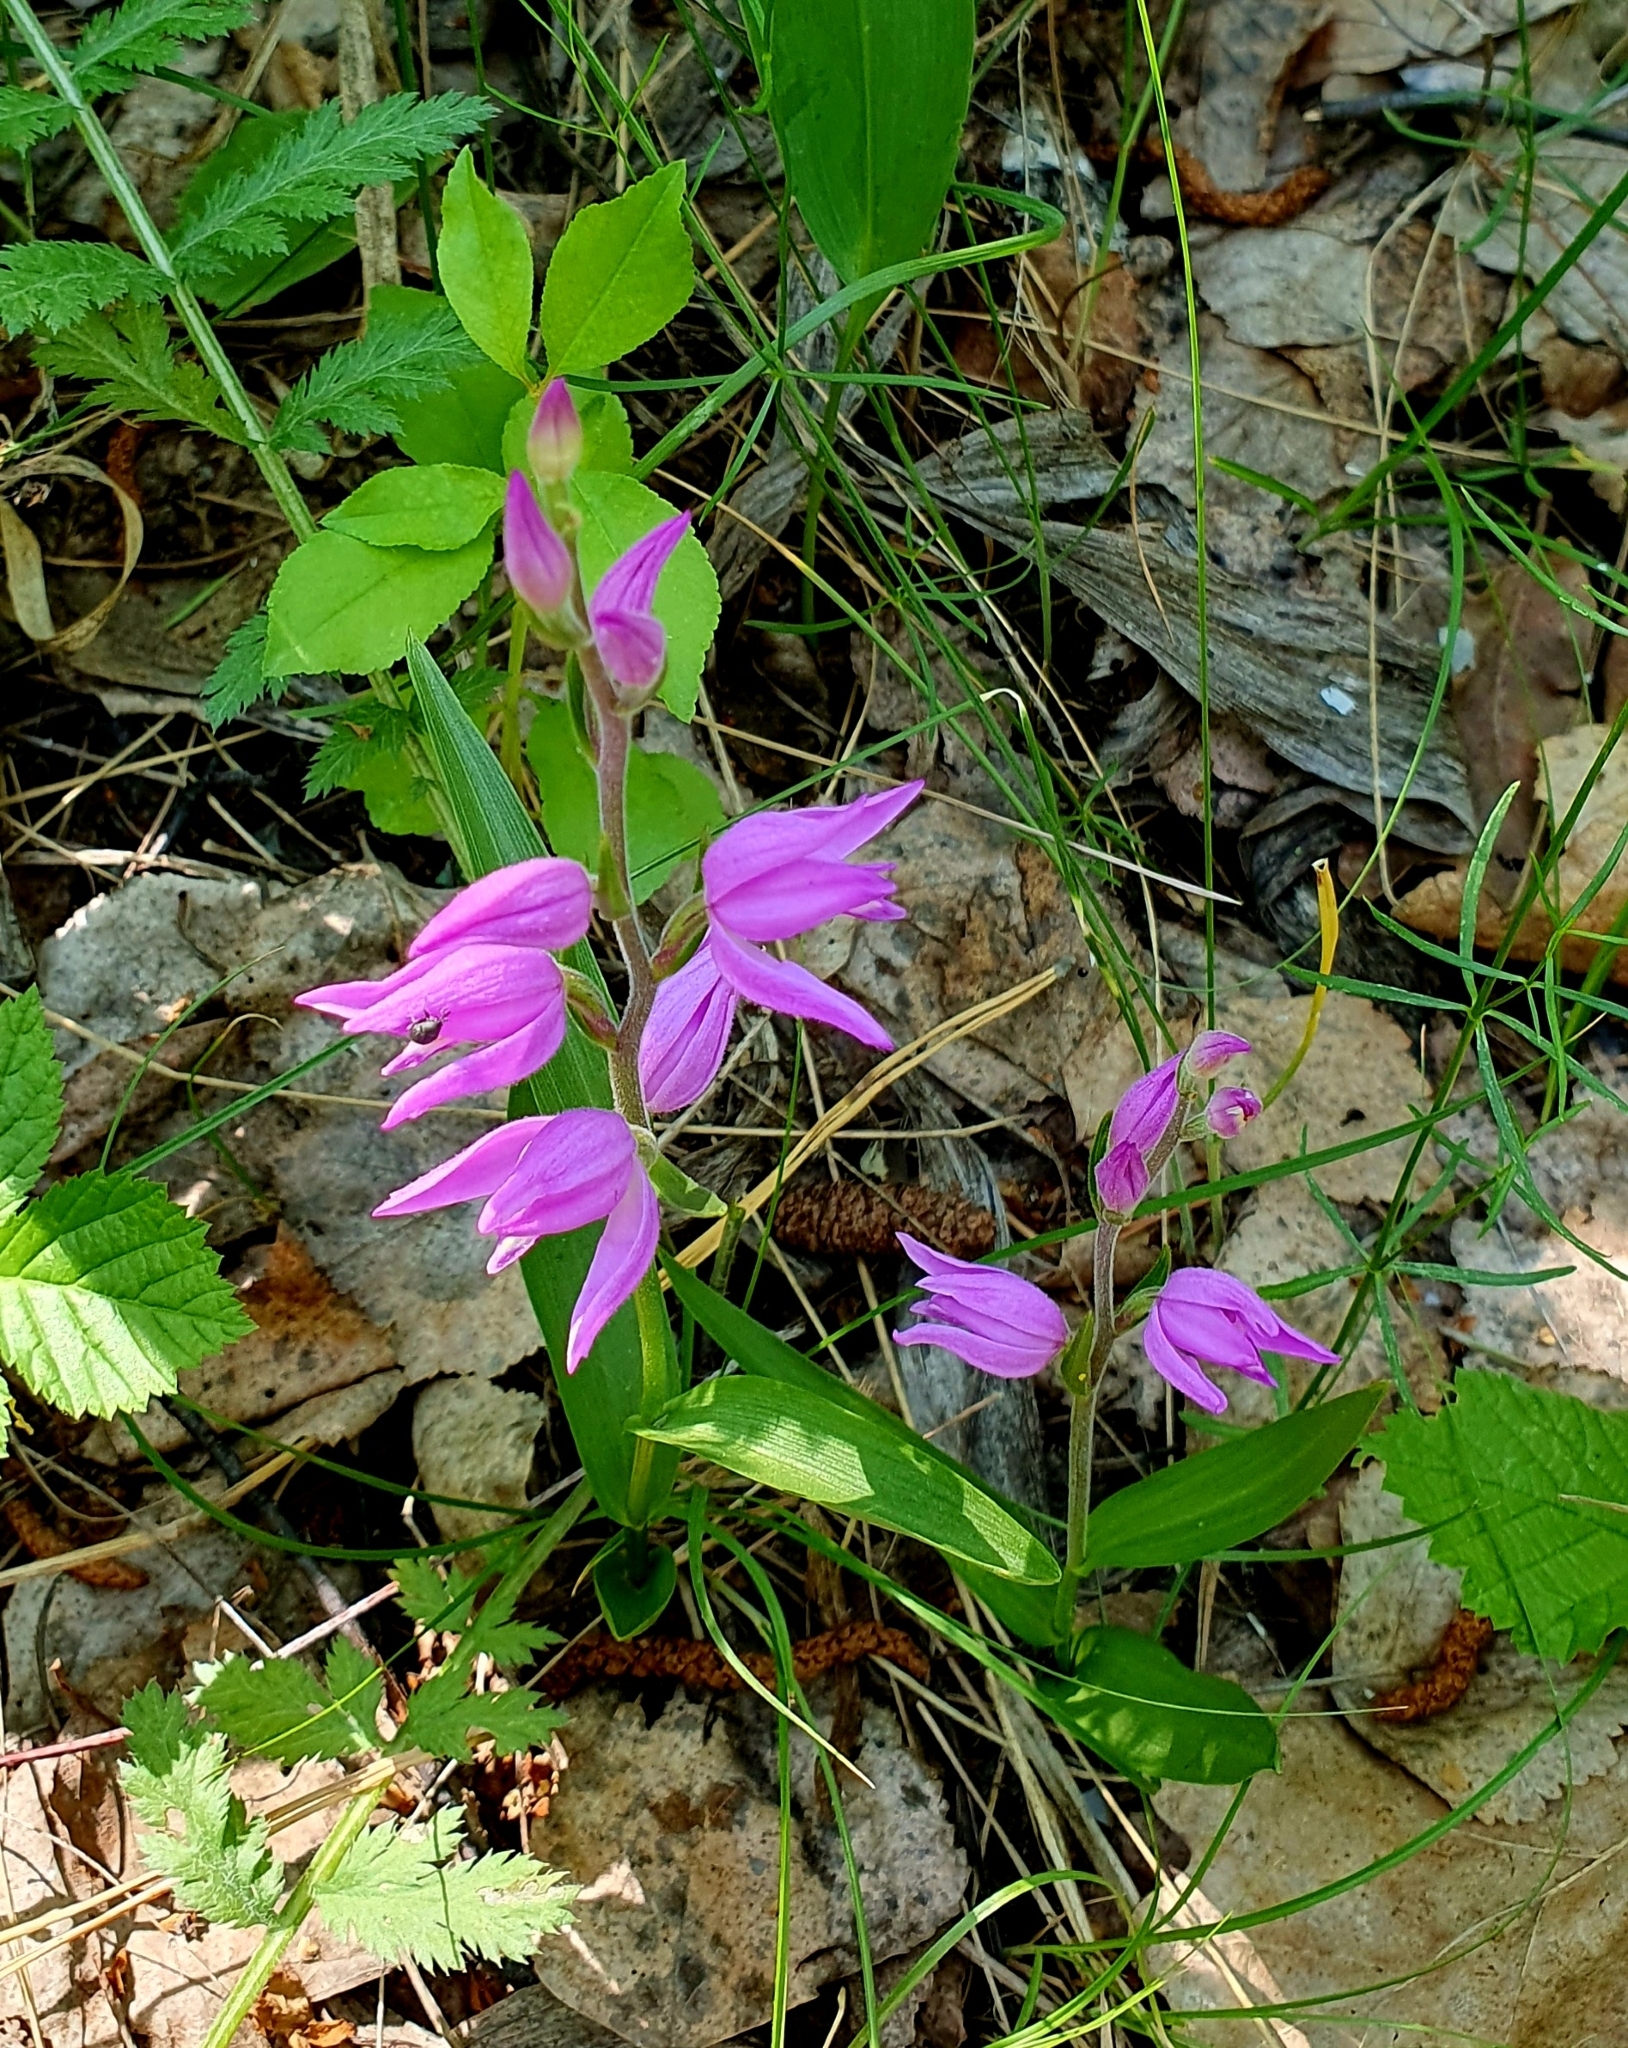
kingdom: Plantae
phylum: Tracheophyta
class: Liliopsida
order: Asparagales
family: Orchidaceae
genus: Cephalanthera
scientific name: Cephalanthera rubra
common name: Red helleborine
